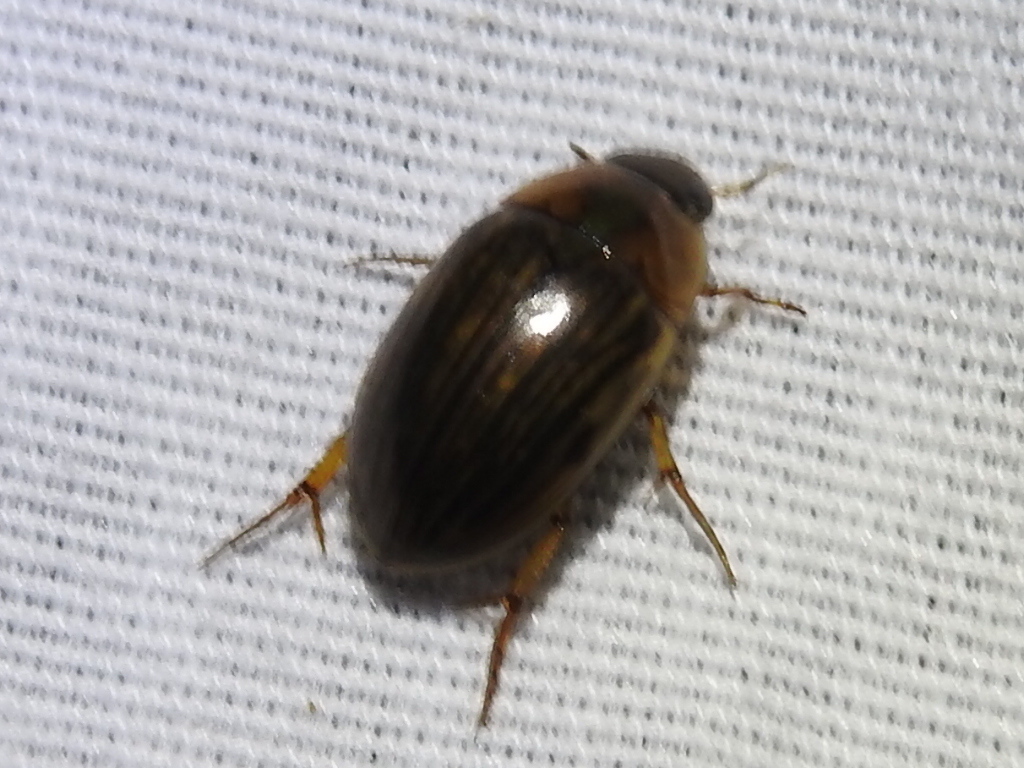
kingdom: Animalia
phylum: Arthropoda
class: Insecta
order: Coleoptera
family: Hydrophilidae
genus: Tropisternus
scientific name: Tropisternus collaris
